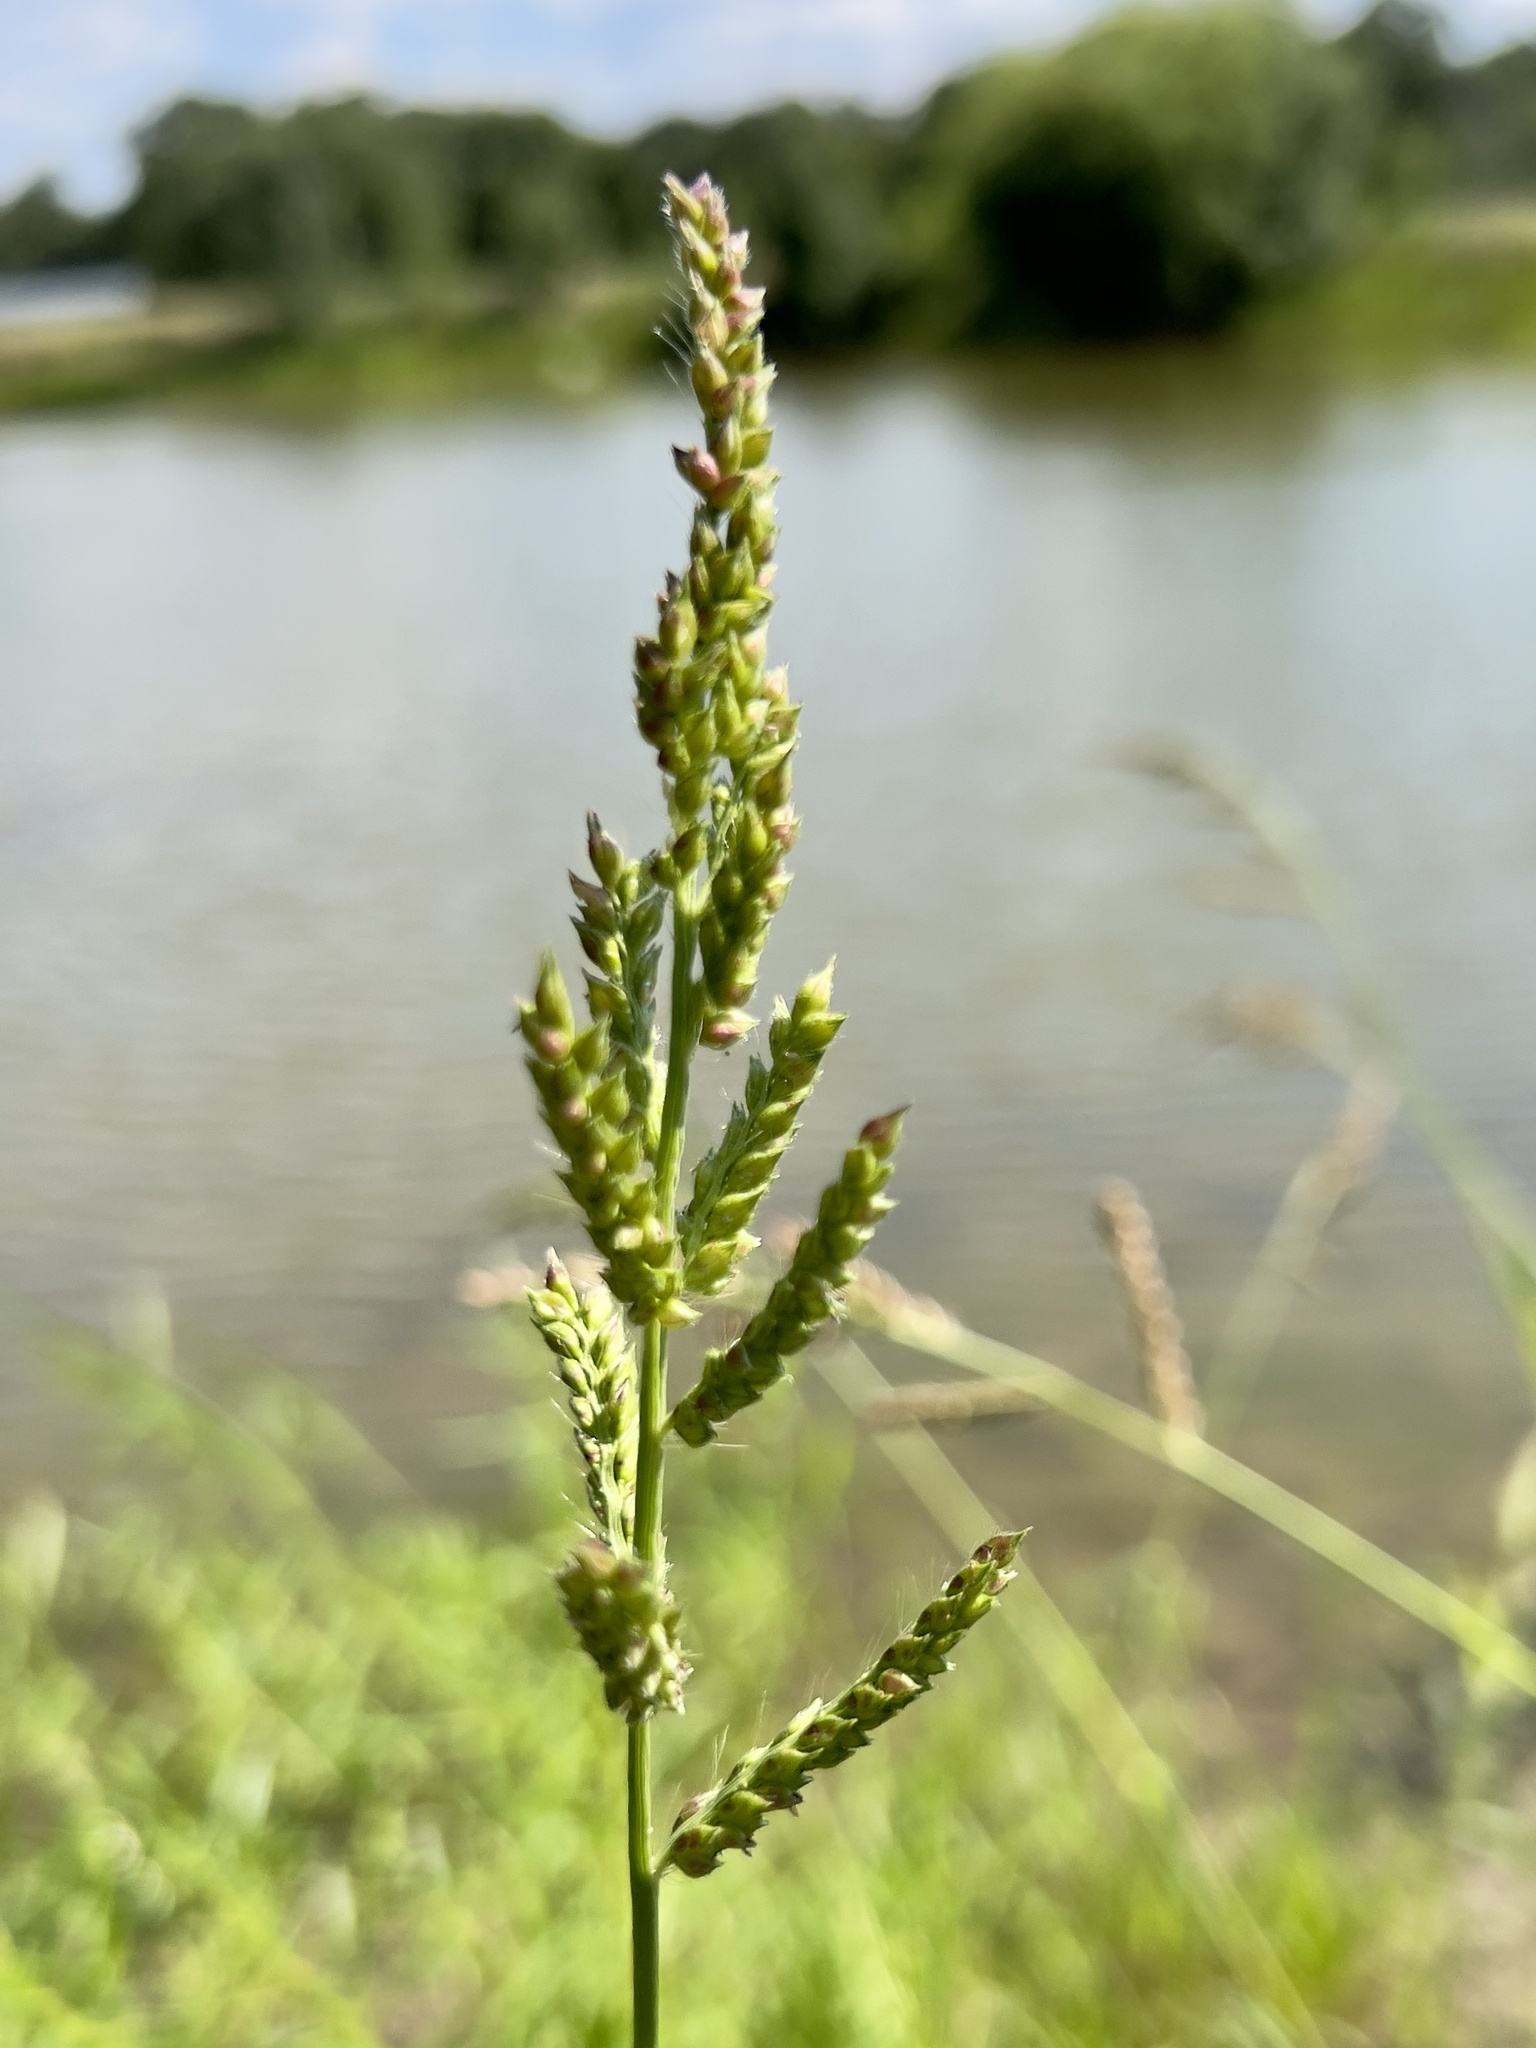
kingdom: Plantae
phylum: Tracheophyta
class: Liliopsida
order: Poales
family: Poaceae
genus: Echinochloa
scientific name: Echinochloa crus-galli
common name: Cockspur
